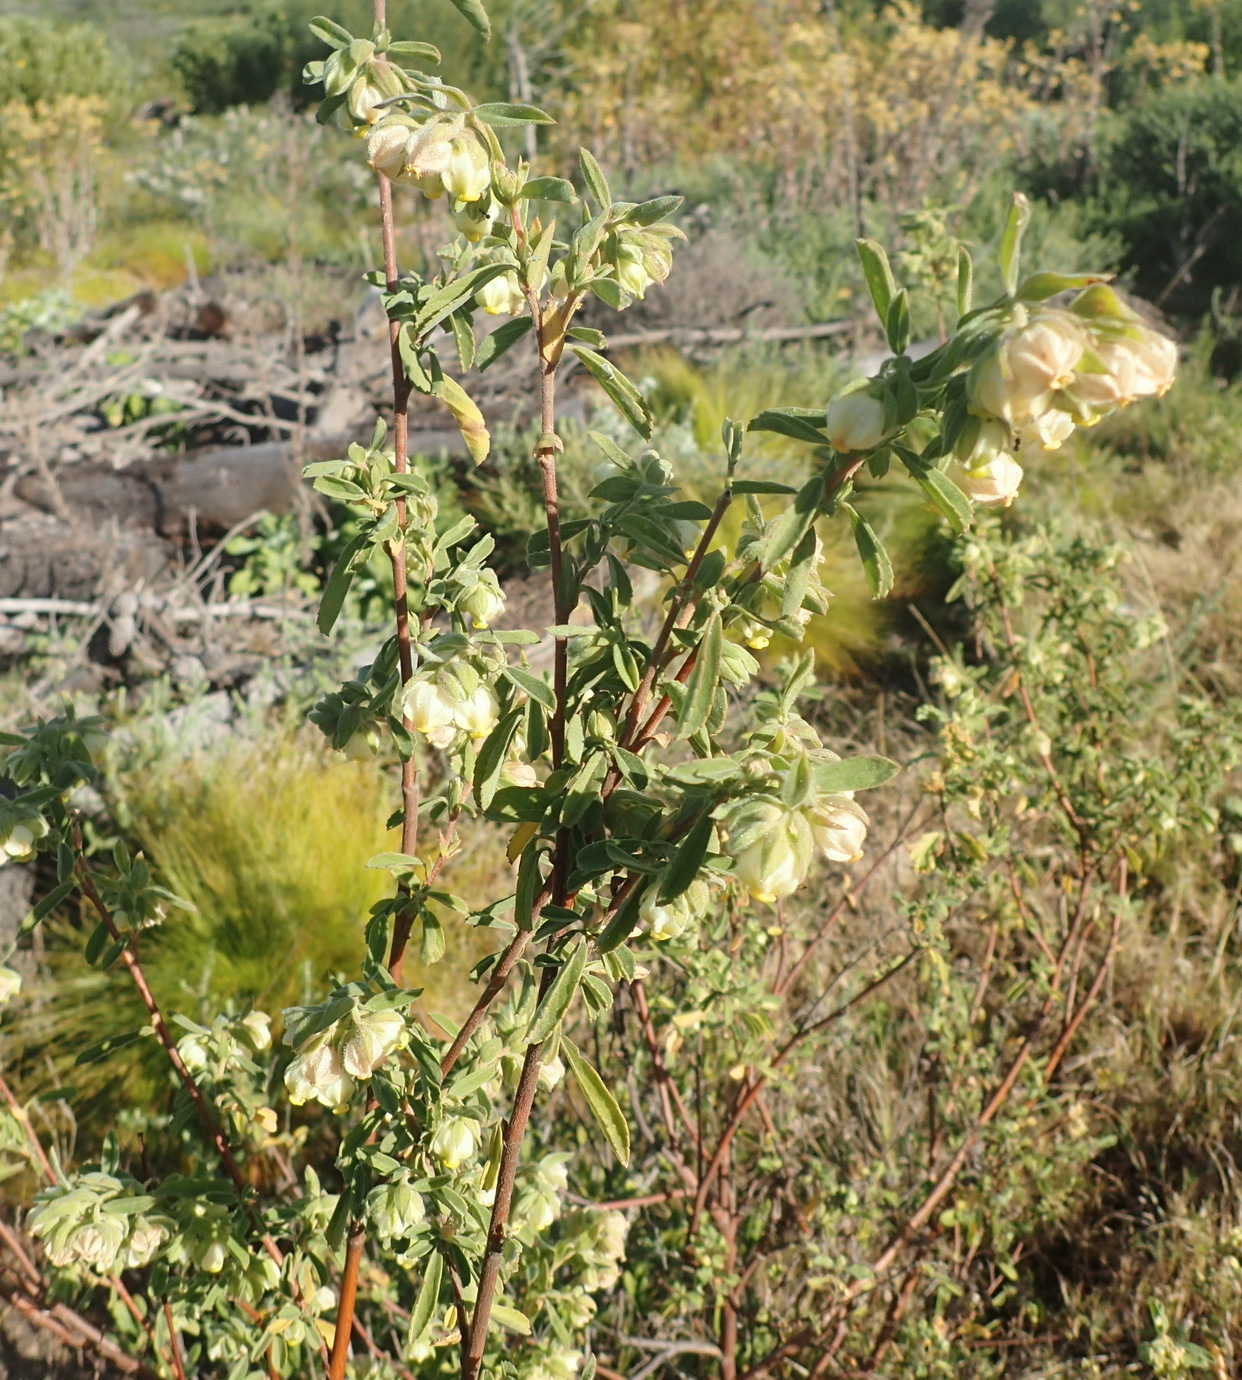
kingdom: Plantae
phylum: Tracheophyta
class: Magnoliopsida
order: Malvales
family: Malvaceae
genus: Hermannia
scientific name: Hermannia hyssopifolia
